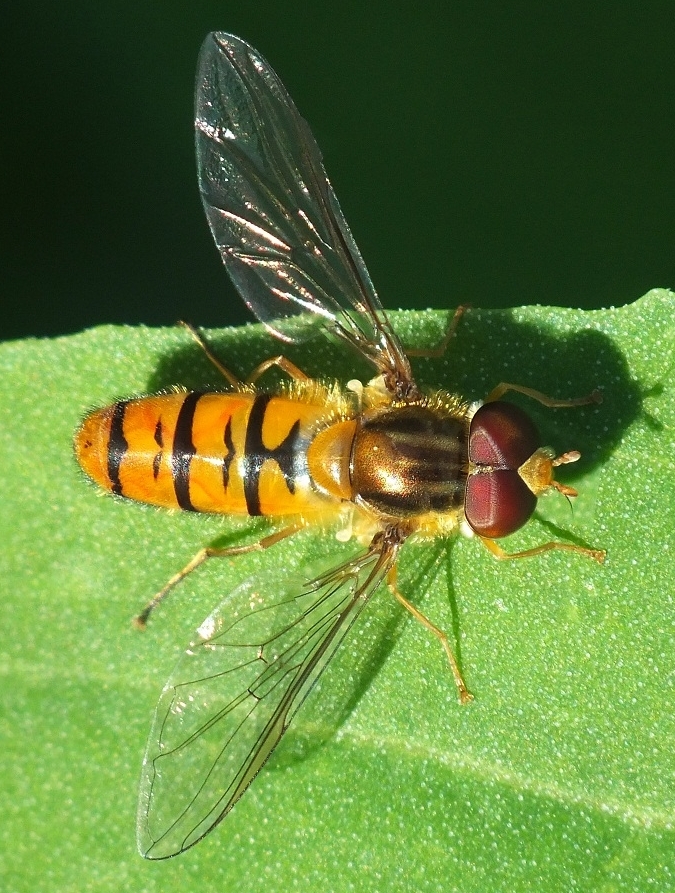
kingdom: Animalia
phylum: Arthropoda
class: Insecta
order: Diptera
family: Syrphidae
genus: Episyrphus
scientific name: Episyrphus balteatus
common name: Marmalade hoverfly
